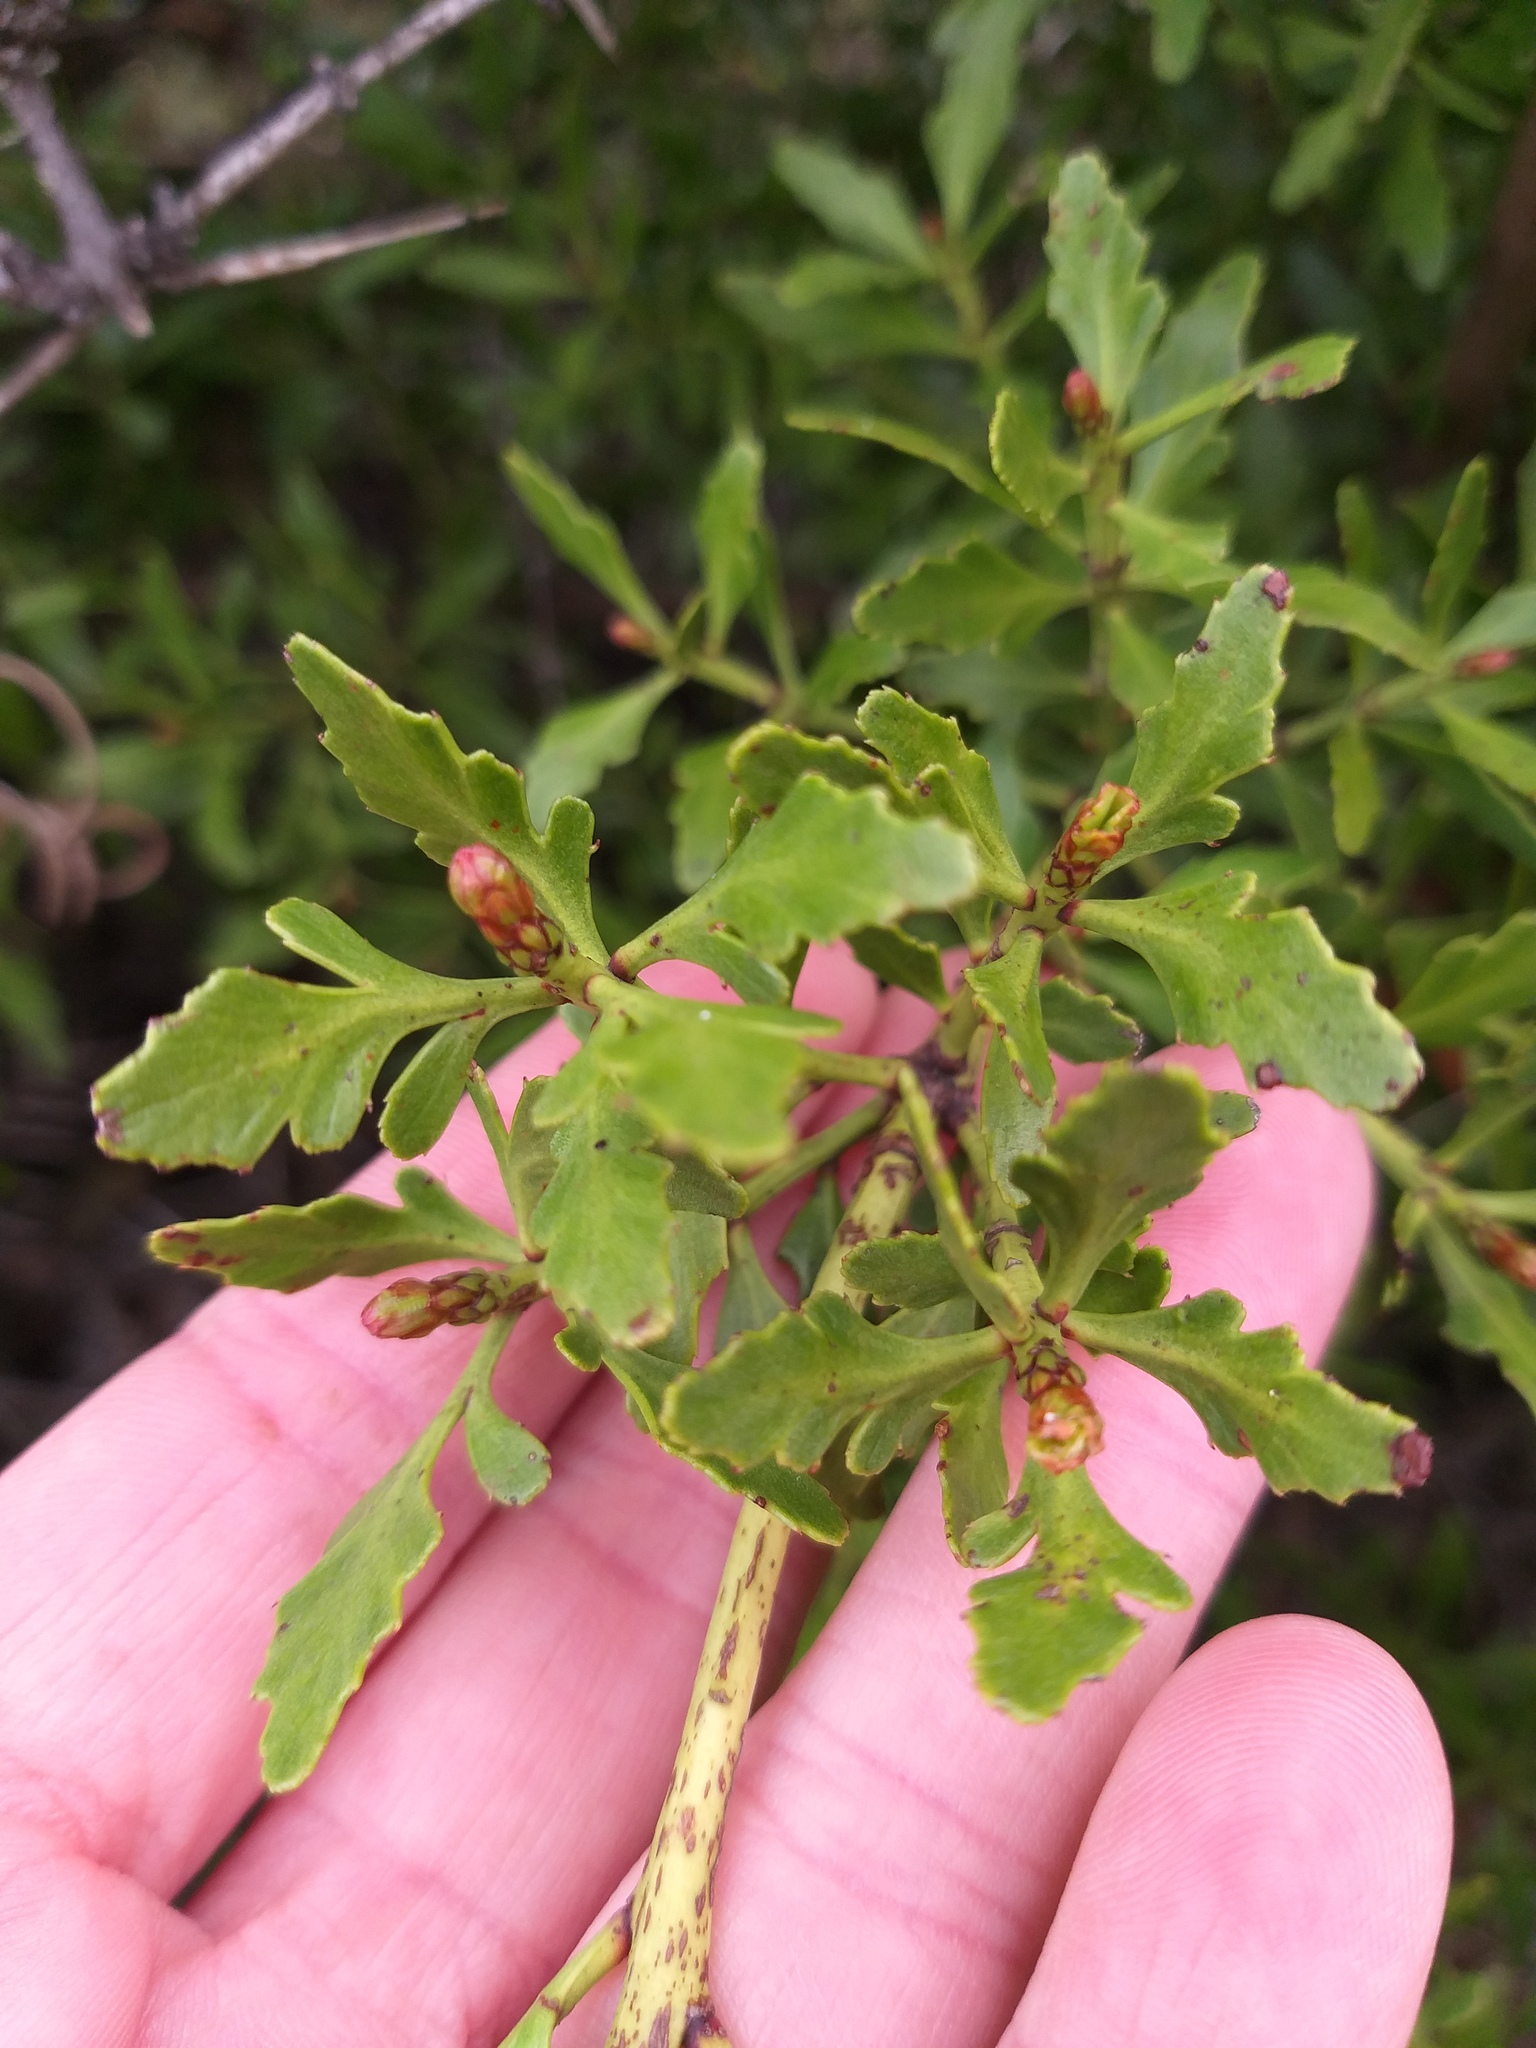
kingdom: Plantae
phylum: Tracheophyta
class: Pinopsida
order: Pinales
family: Phyllocladaceae
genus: Phyllocladus
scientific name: Phyllocladus trichomanoides
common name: Celery pine
